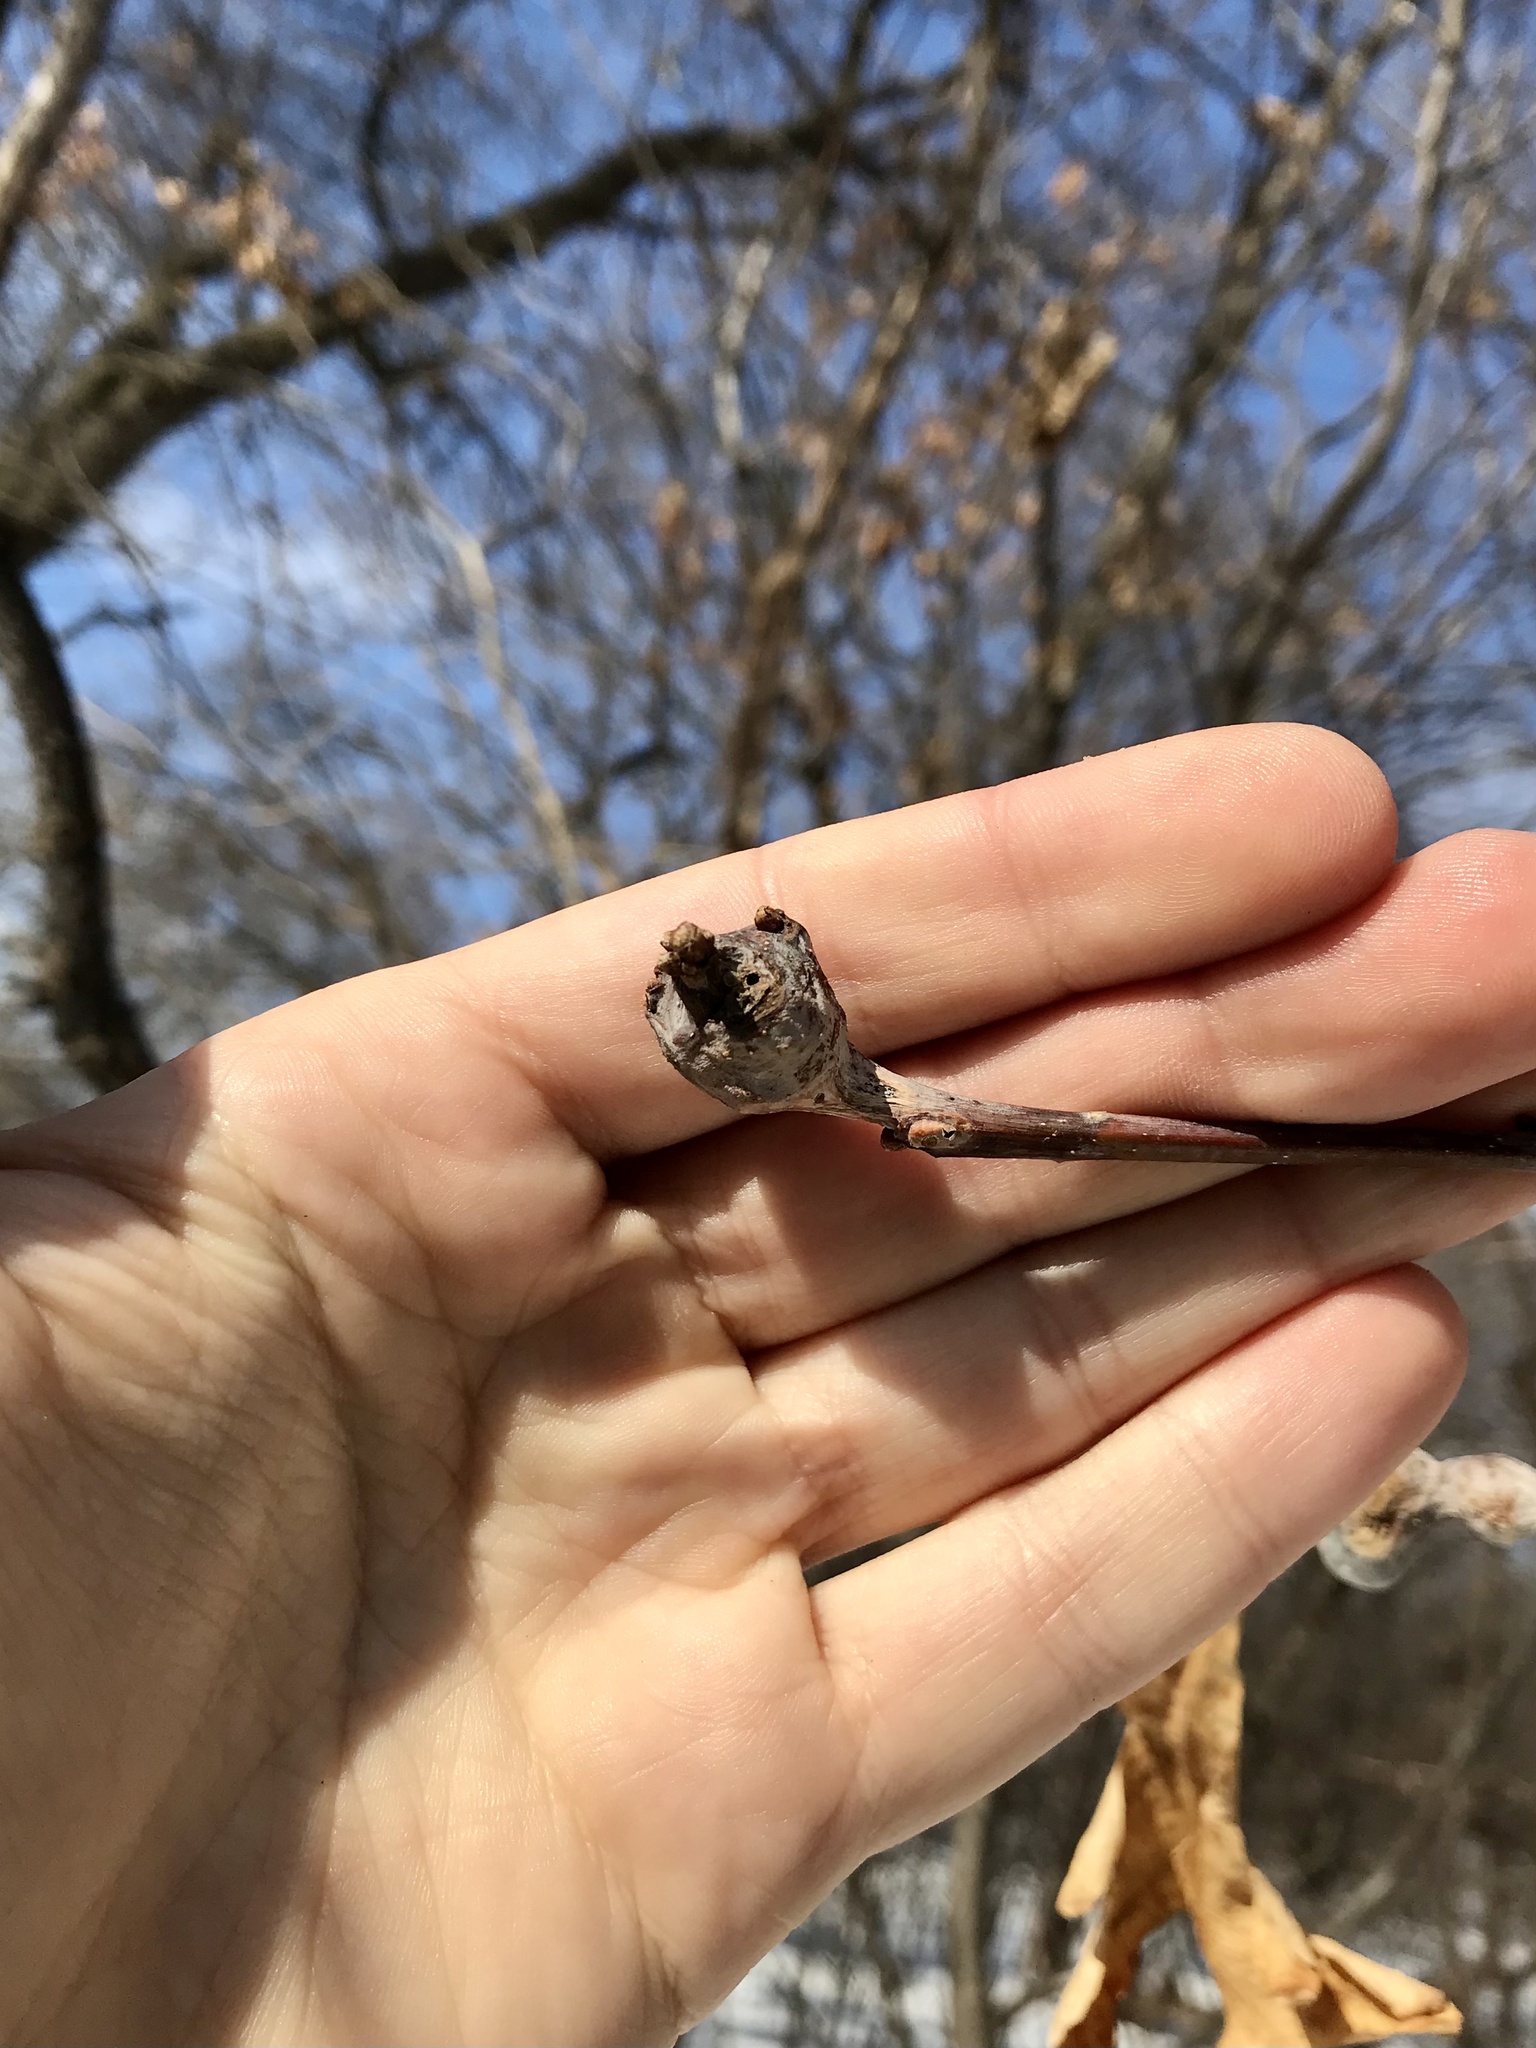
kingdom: Animalia
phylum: Arthropoda
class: Insecta
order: Hymenoptera
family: Cynipidae
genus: Callirhytis
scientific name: Callirhytis clavula
